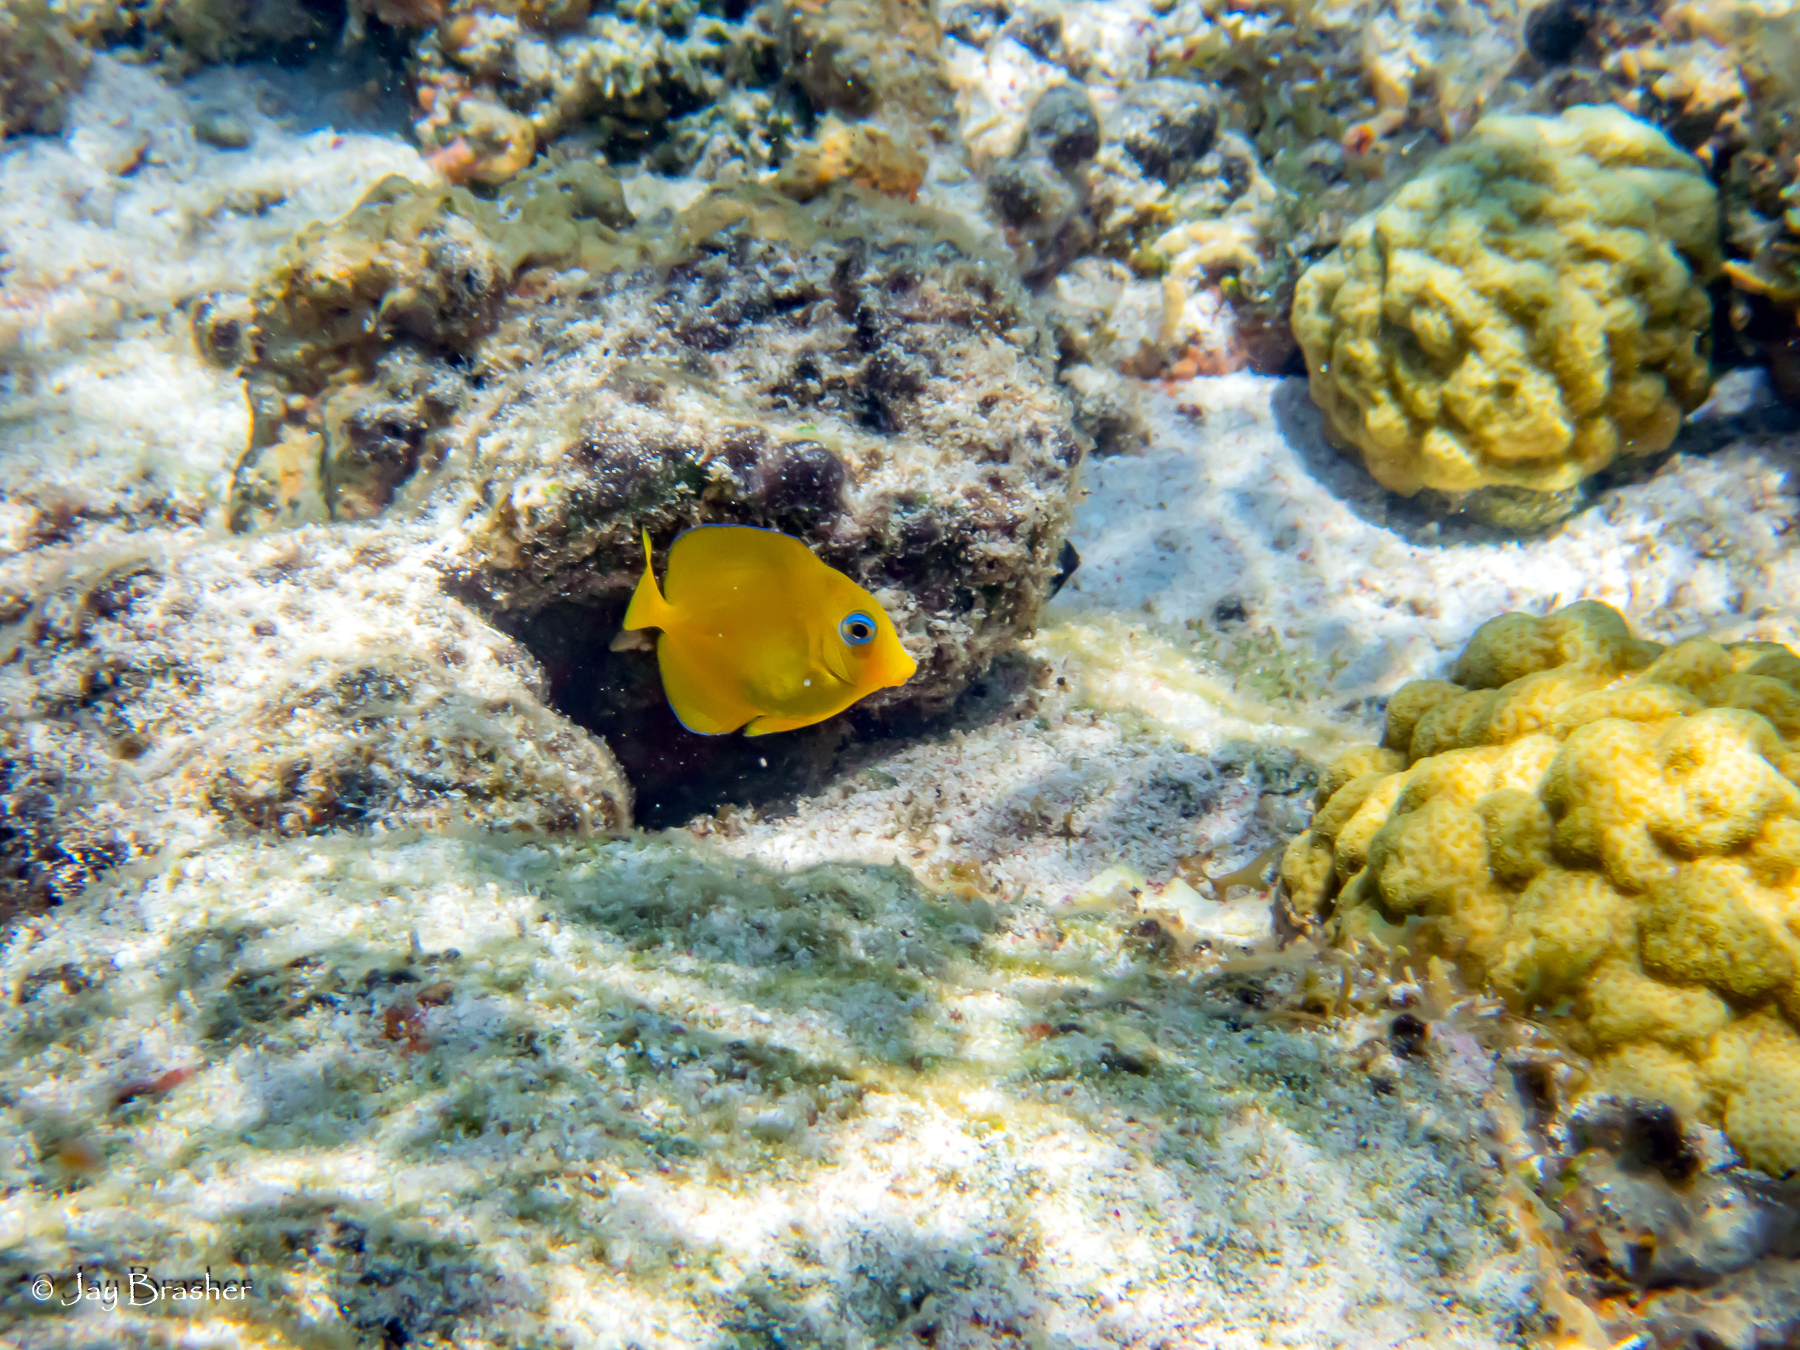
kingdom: Animalia
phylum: Chordata
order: Perciformes
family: Acanthuridae
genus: Acanthurus
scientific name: Acanthurus coeruleus
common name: Blue tang
